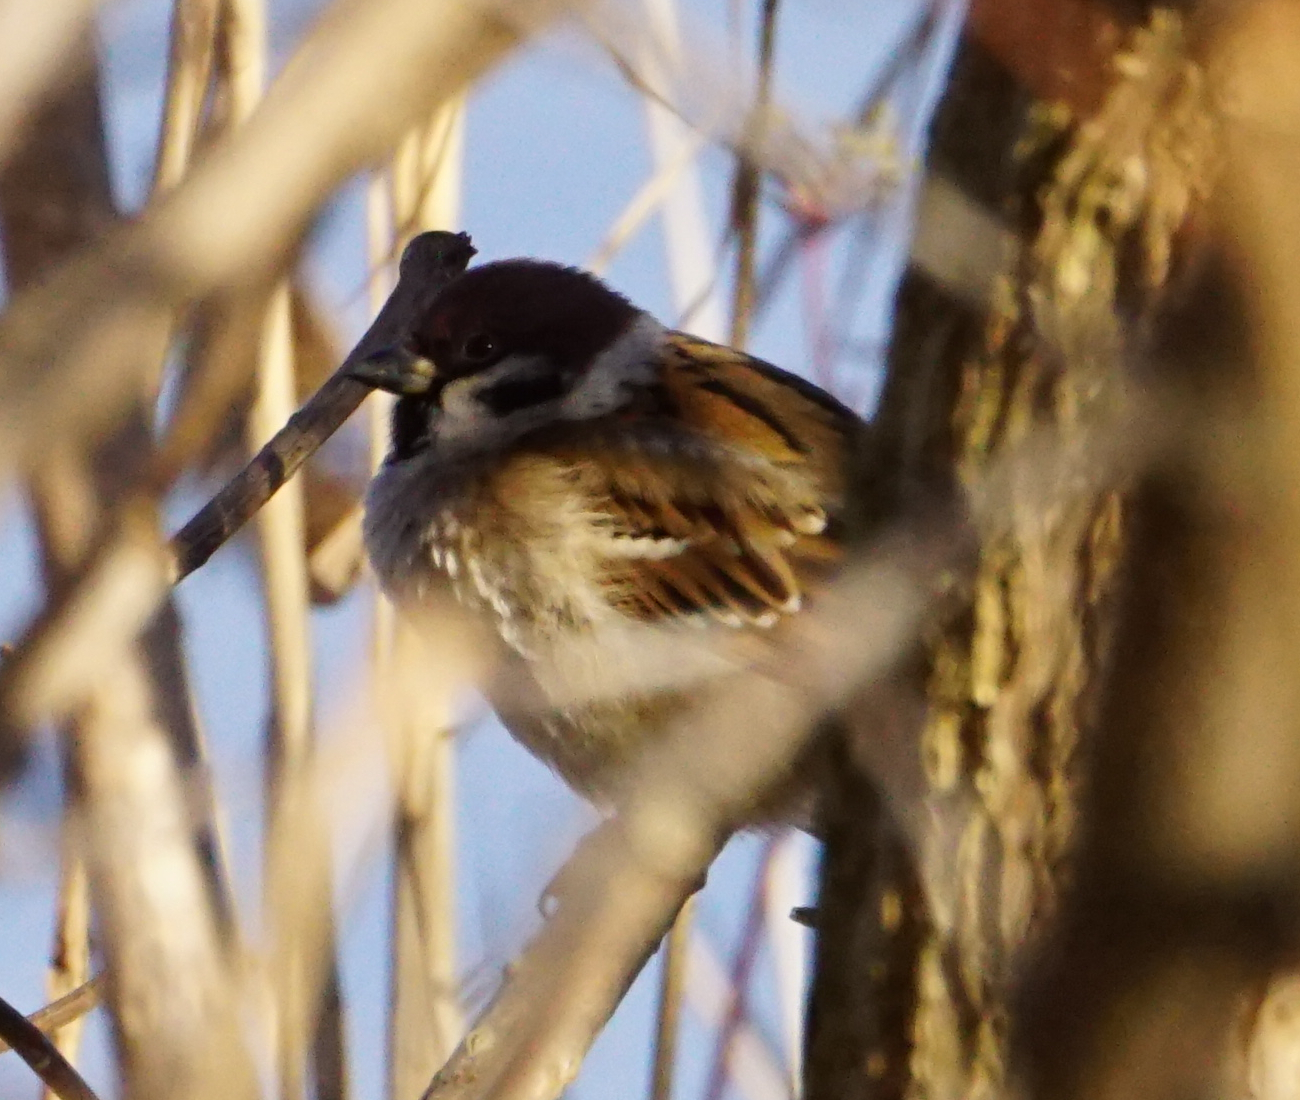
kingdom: Animalia
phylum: Chordata
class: Aves
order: Passeriformes
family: Passeridae
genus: Passer
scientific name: Passer montanus
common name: Eurasian tree sparrow
